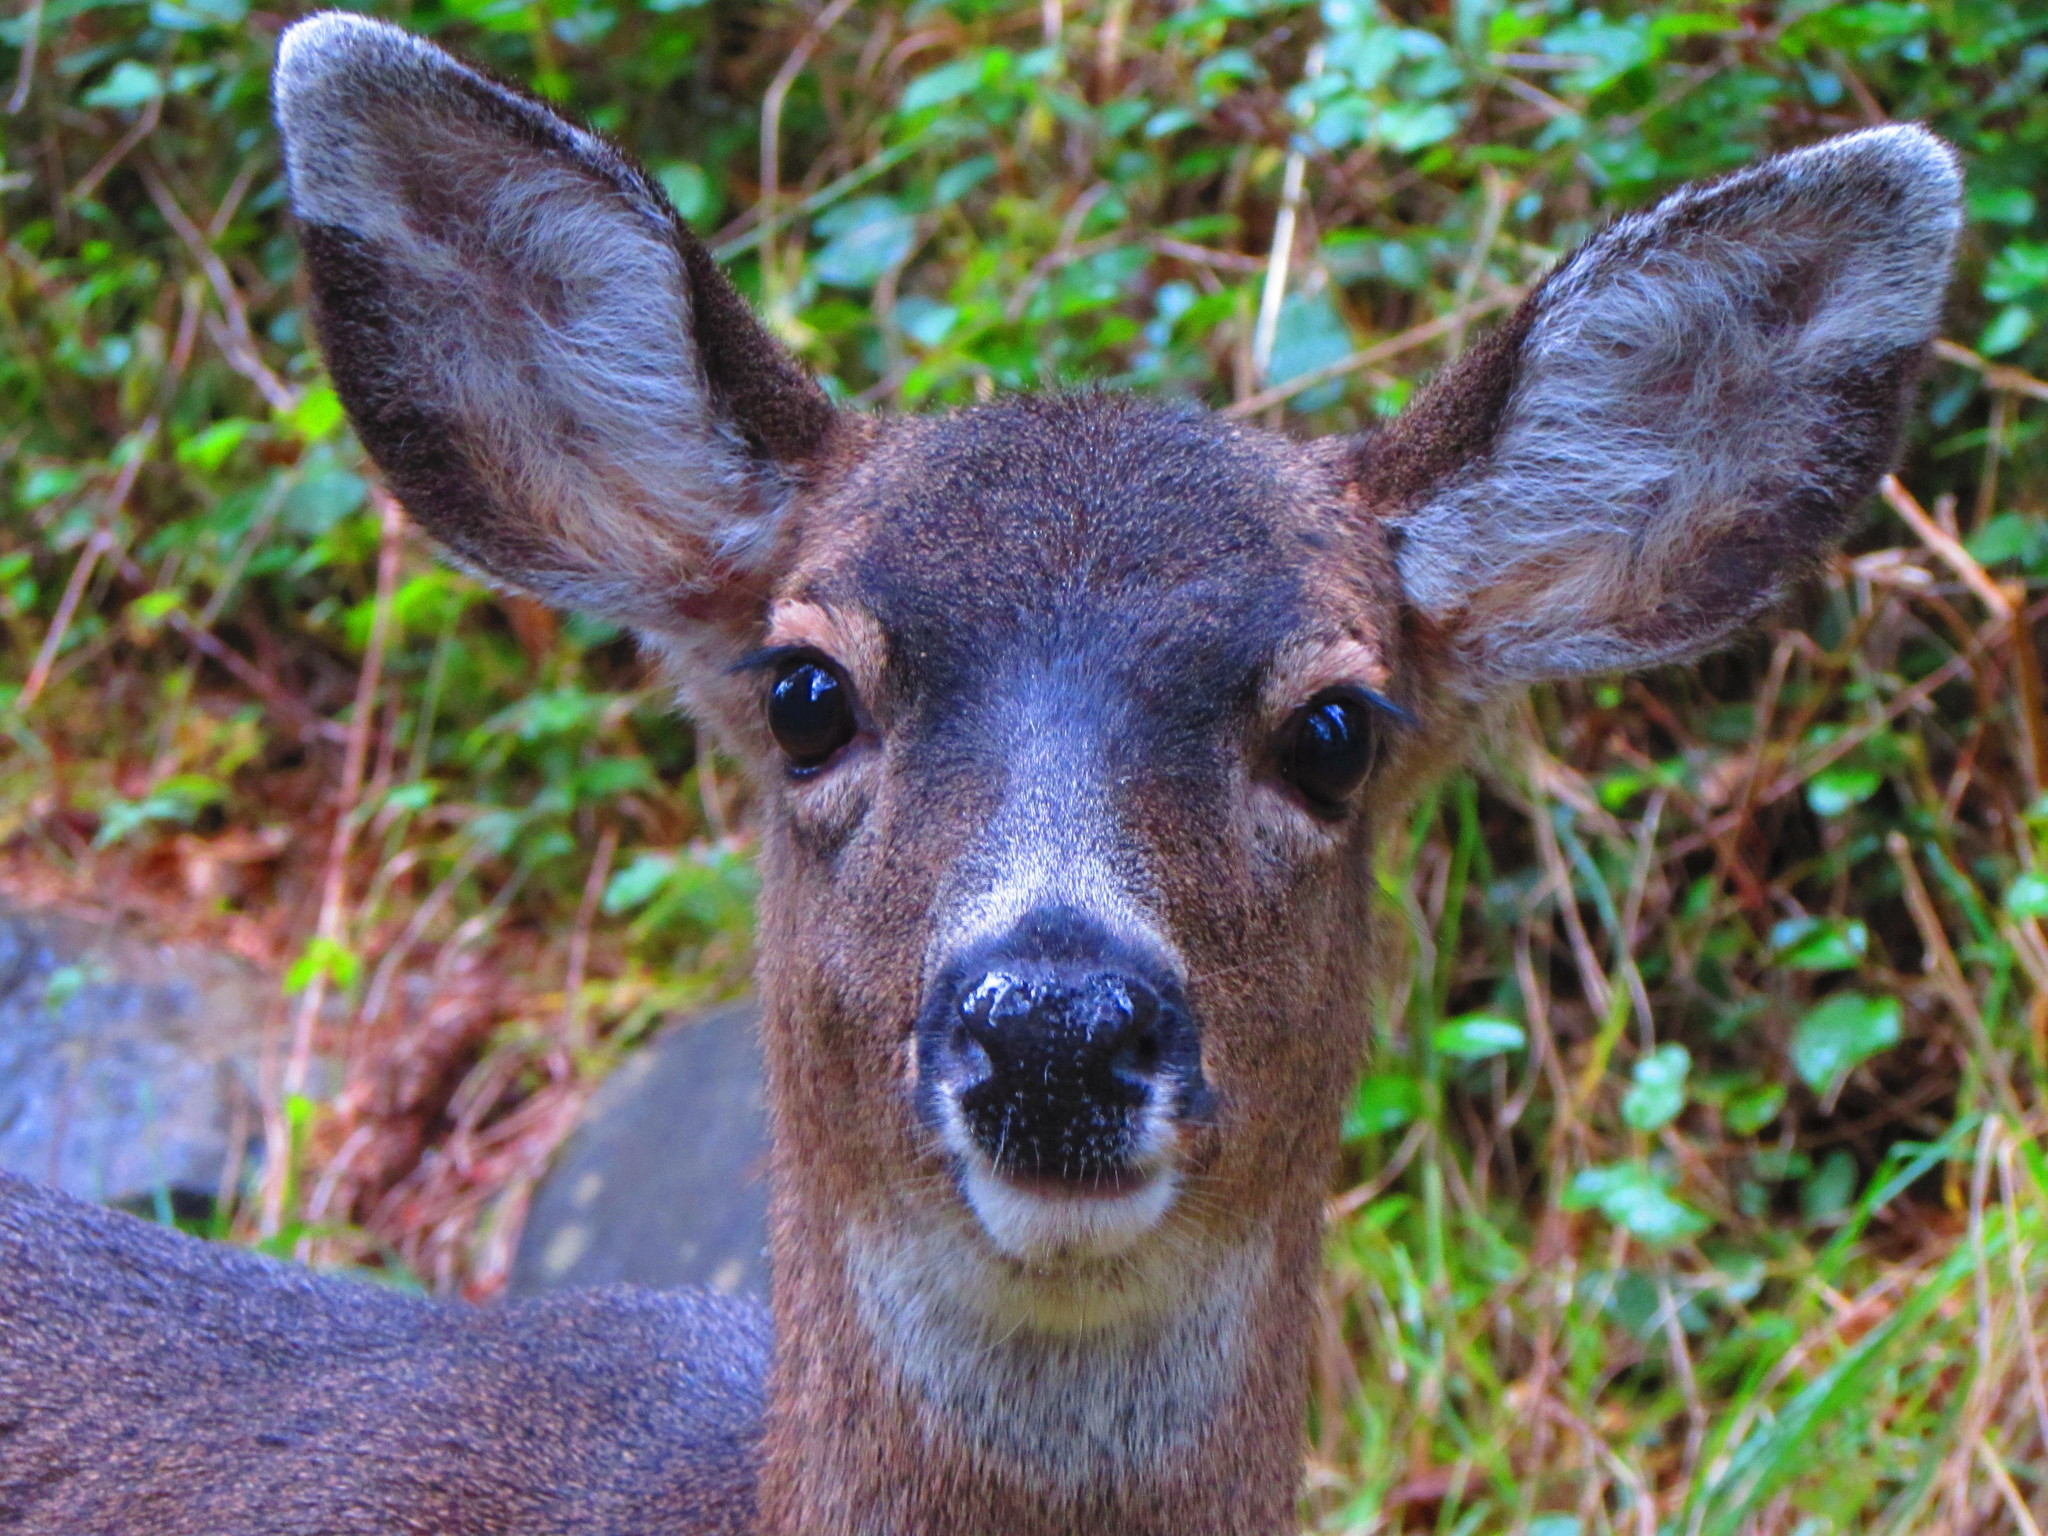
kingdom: Animalia
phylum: Chordata
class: Mammalia
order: Artiodactyla
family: Cervidae
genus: Odocoileus
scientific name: Odocoileus hemionus
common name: Mule deer
